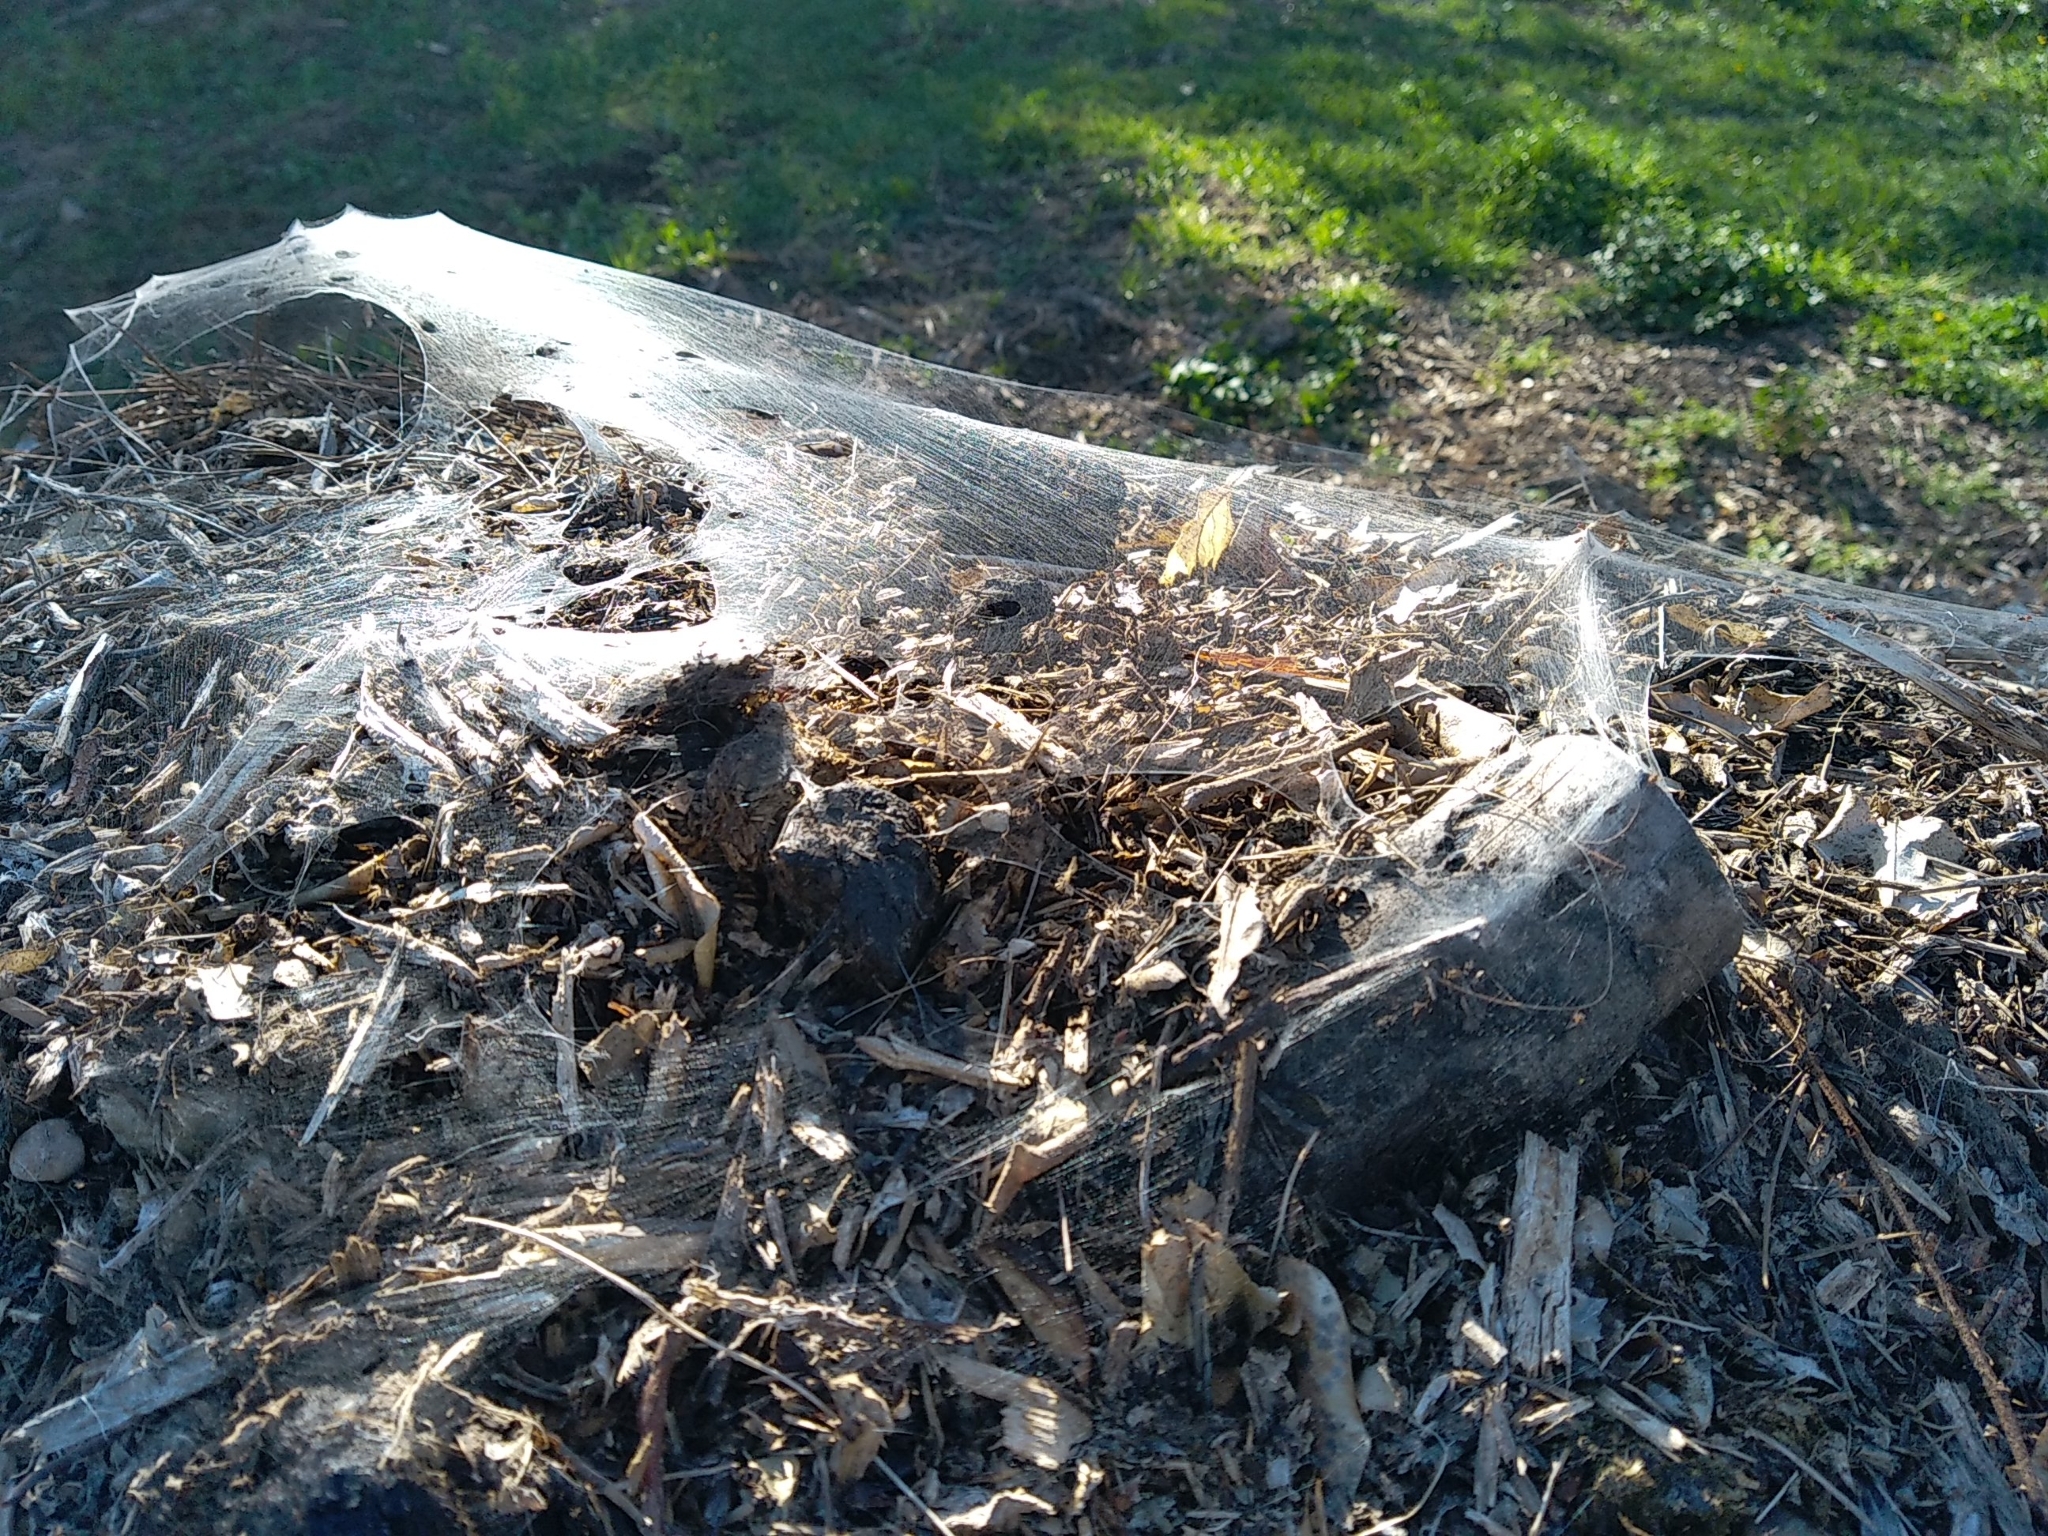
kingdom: Animalia
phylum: Arthropoda
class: Arachnida
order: Araneae
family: Linyphiidae
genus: Ostearius
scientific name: Ostearius melanopygius
